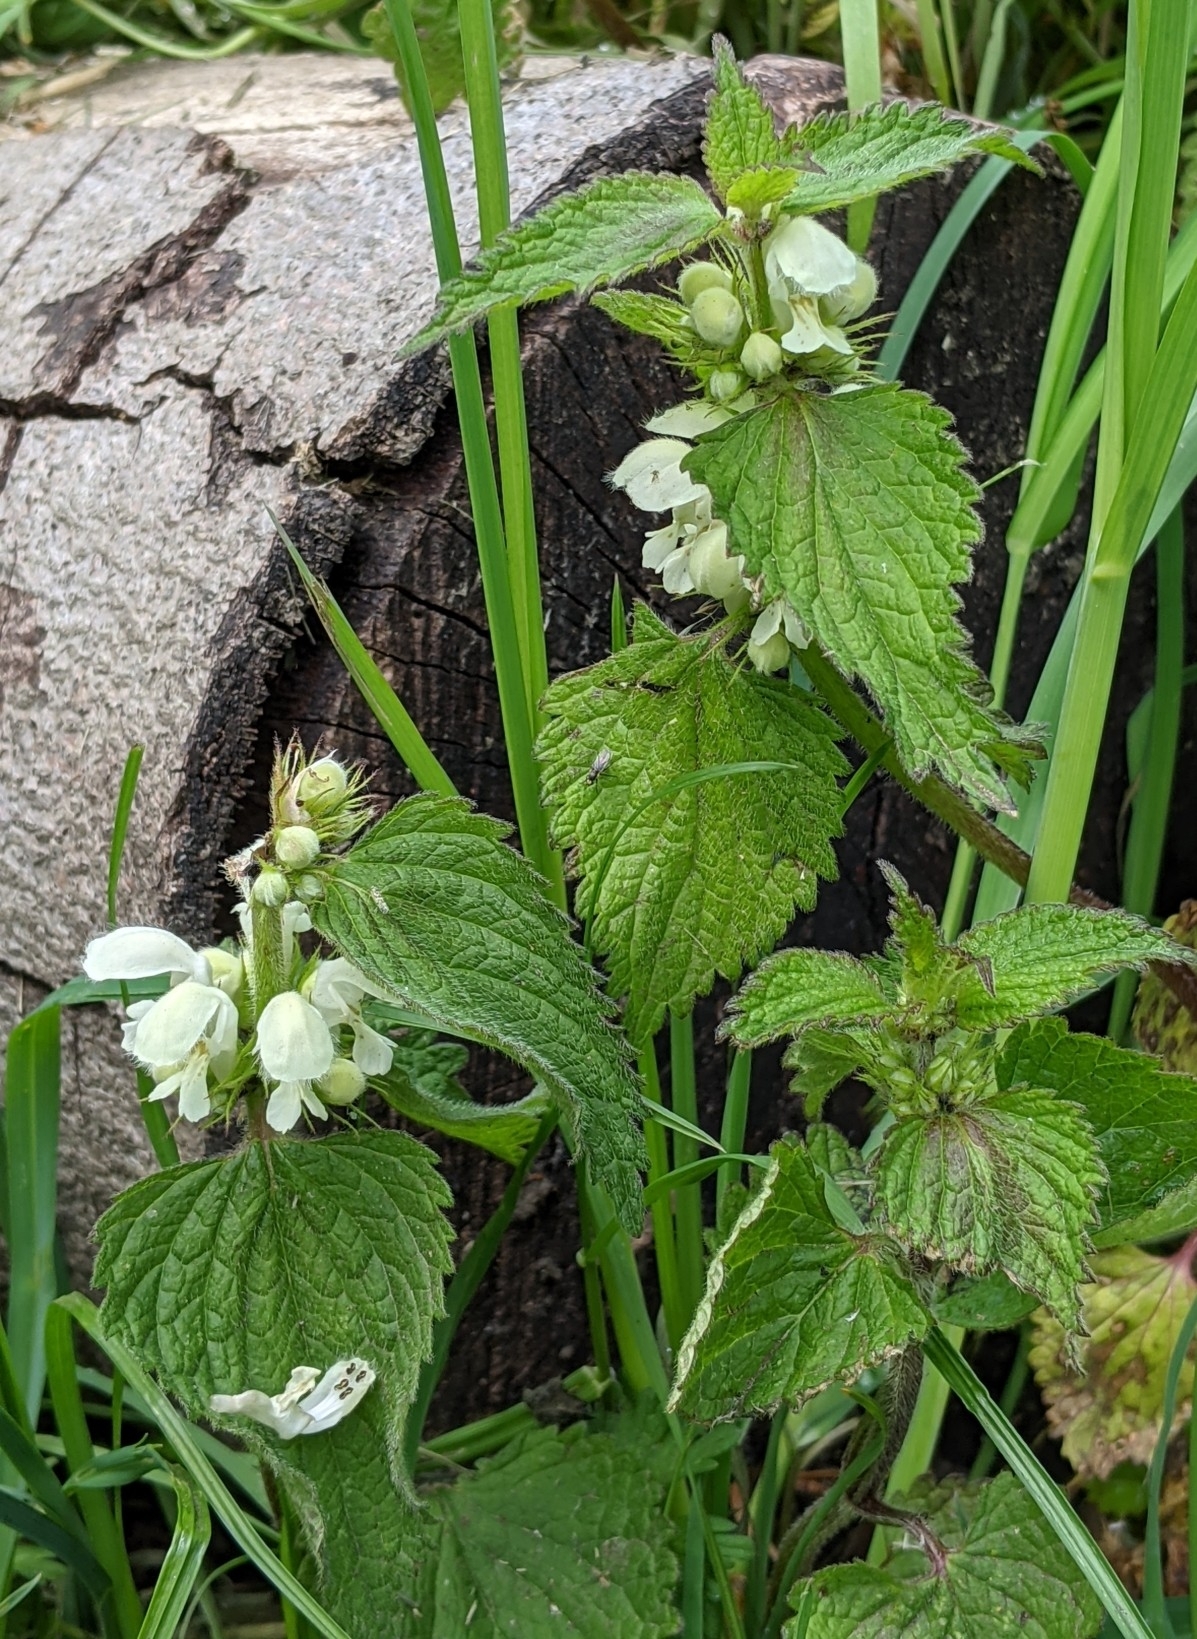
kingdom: Plantae
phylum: Tracheophyta
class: Magnoliopsida
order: Lamiales
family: Lamiaceae
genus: Lamium
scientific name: Lamium album
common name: White dead-nettle
